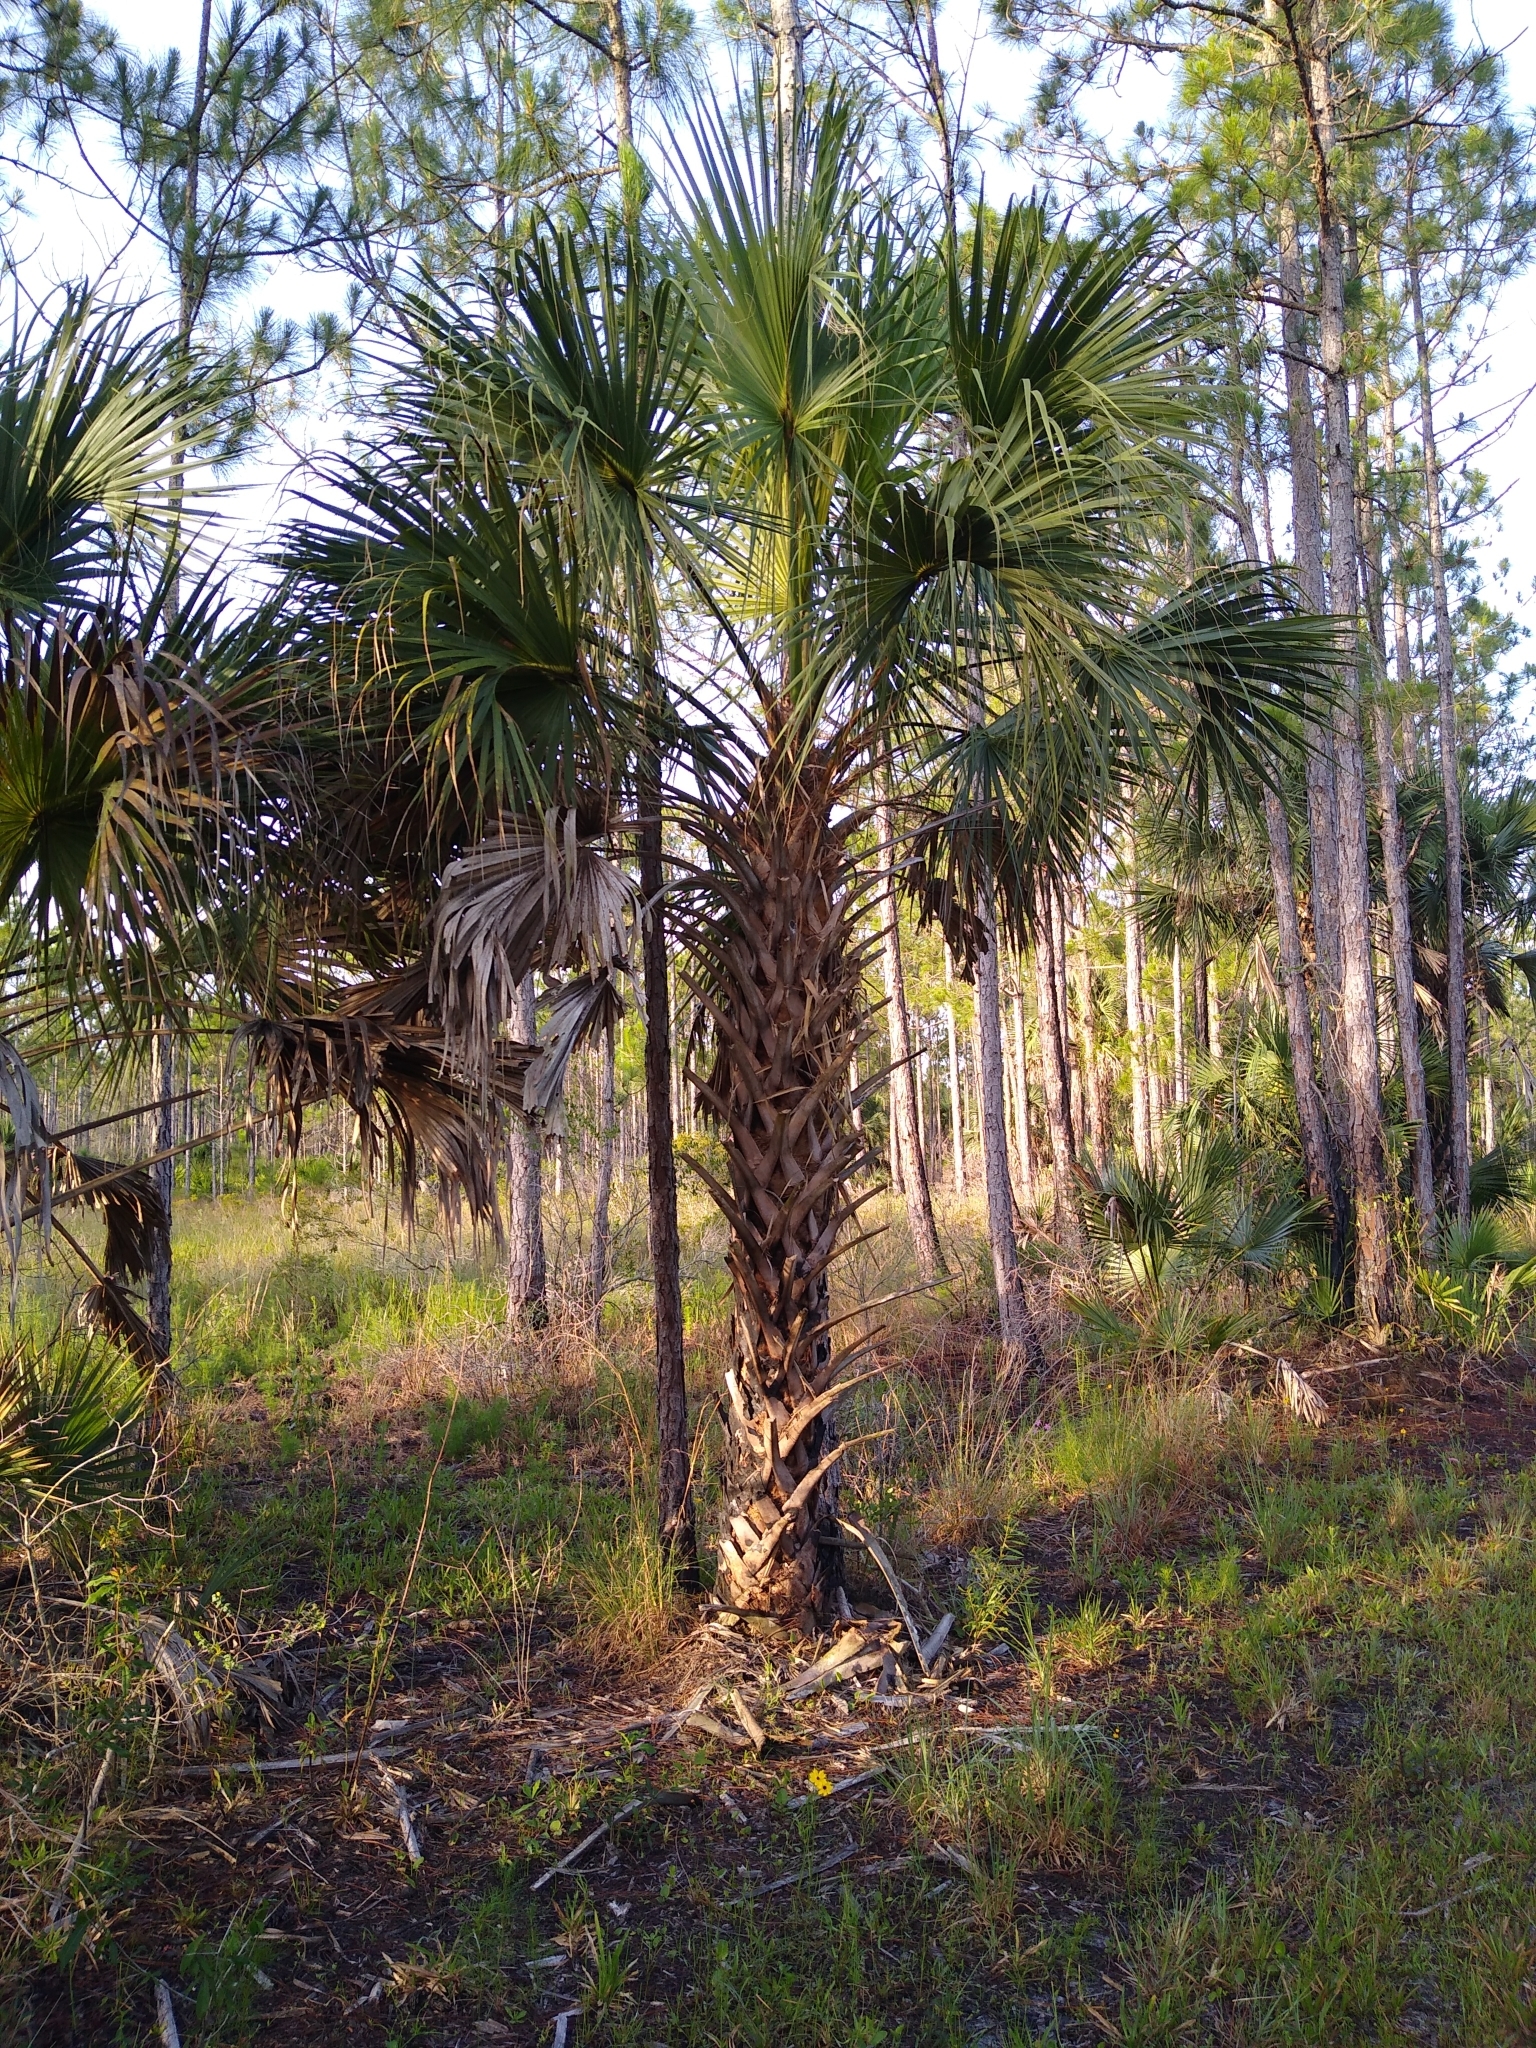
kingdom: Plantae
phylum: Tracheophyta
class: Liliopsida
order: Arecales
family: Arecaceae
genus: Sabal
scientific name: Sabal palmetto
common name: Blue palmetto
